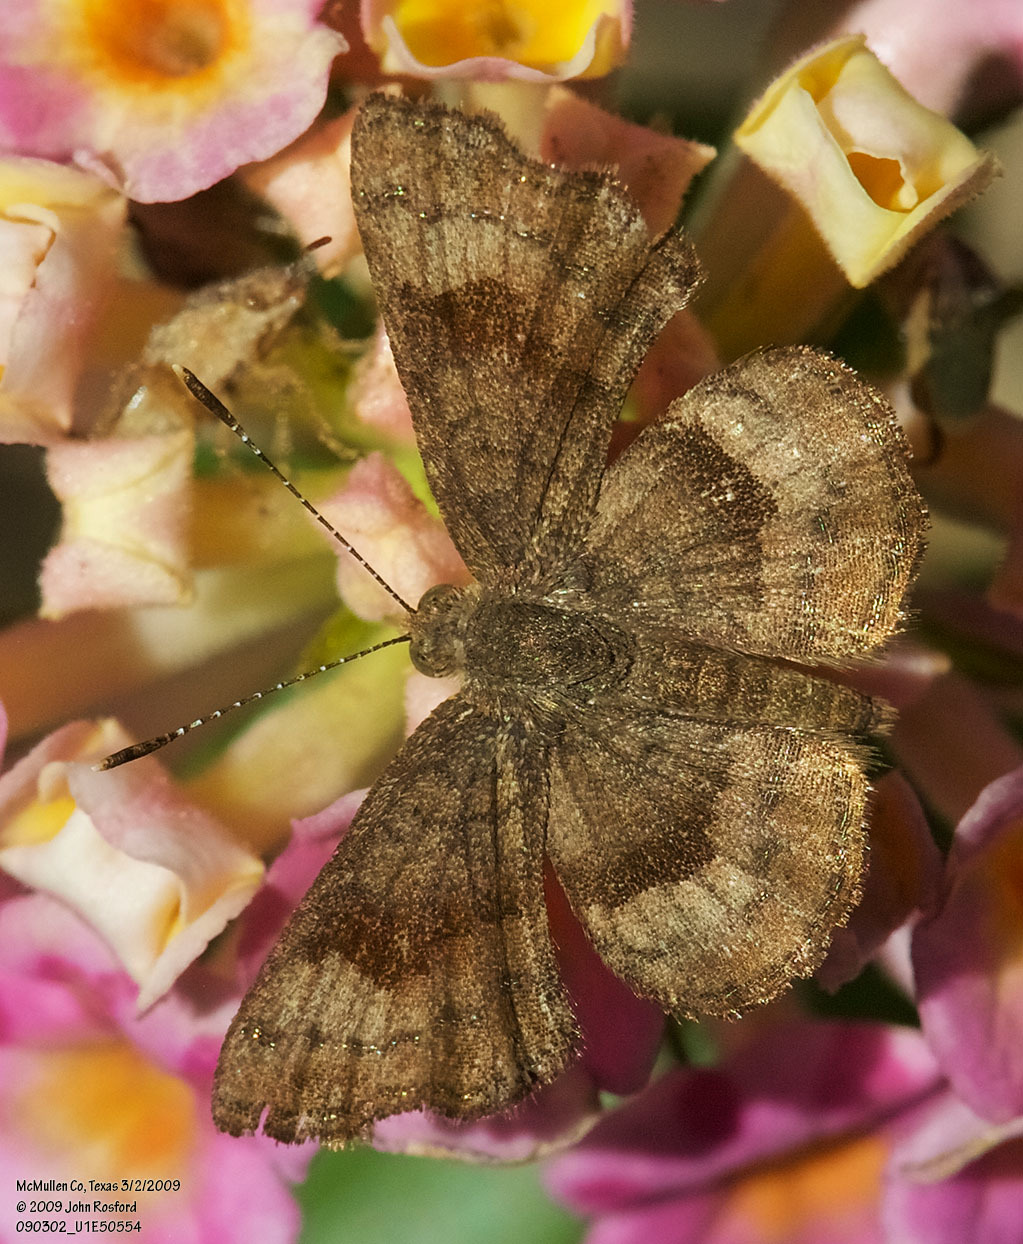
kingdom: Animalia
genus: Calephelis
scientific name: Calephelis nemesis
